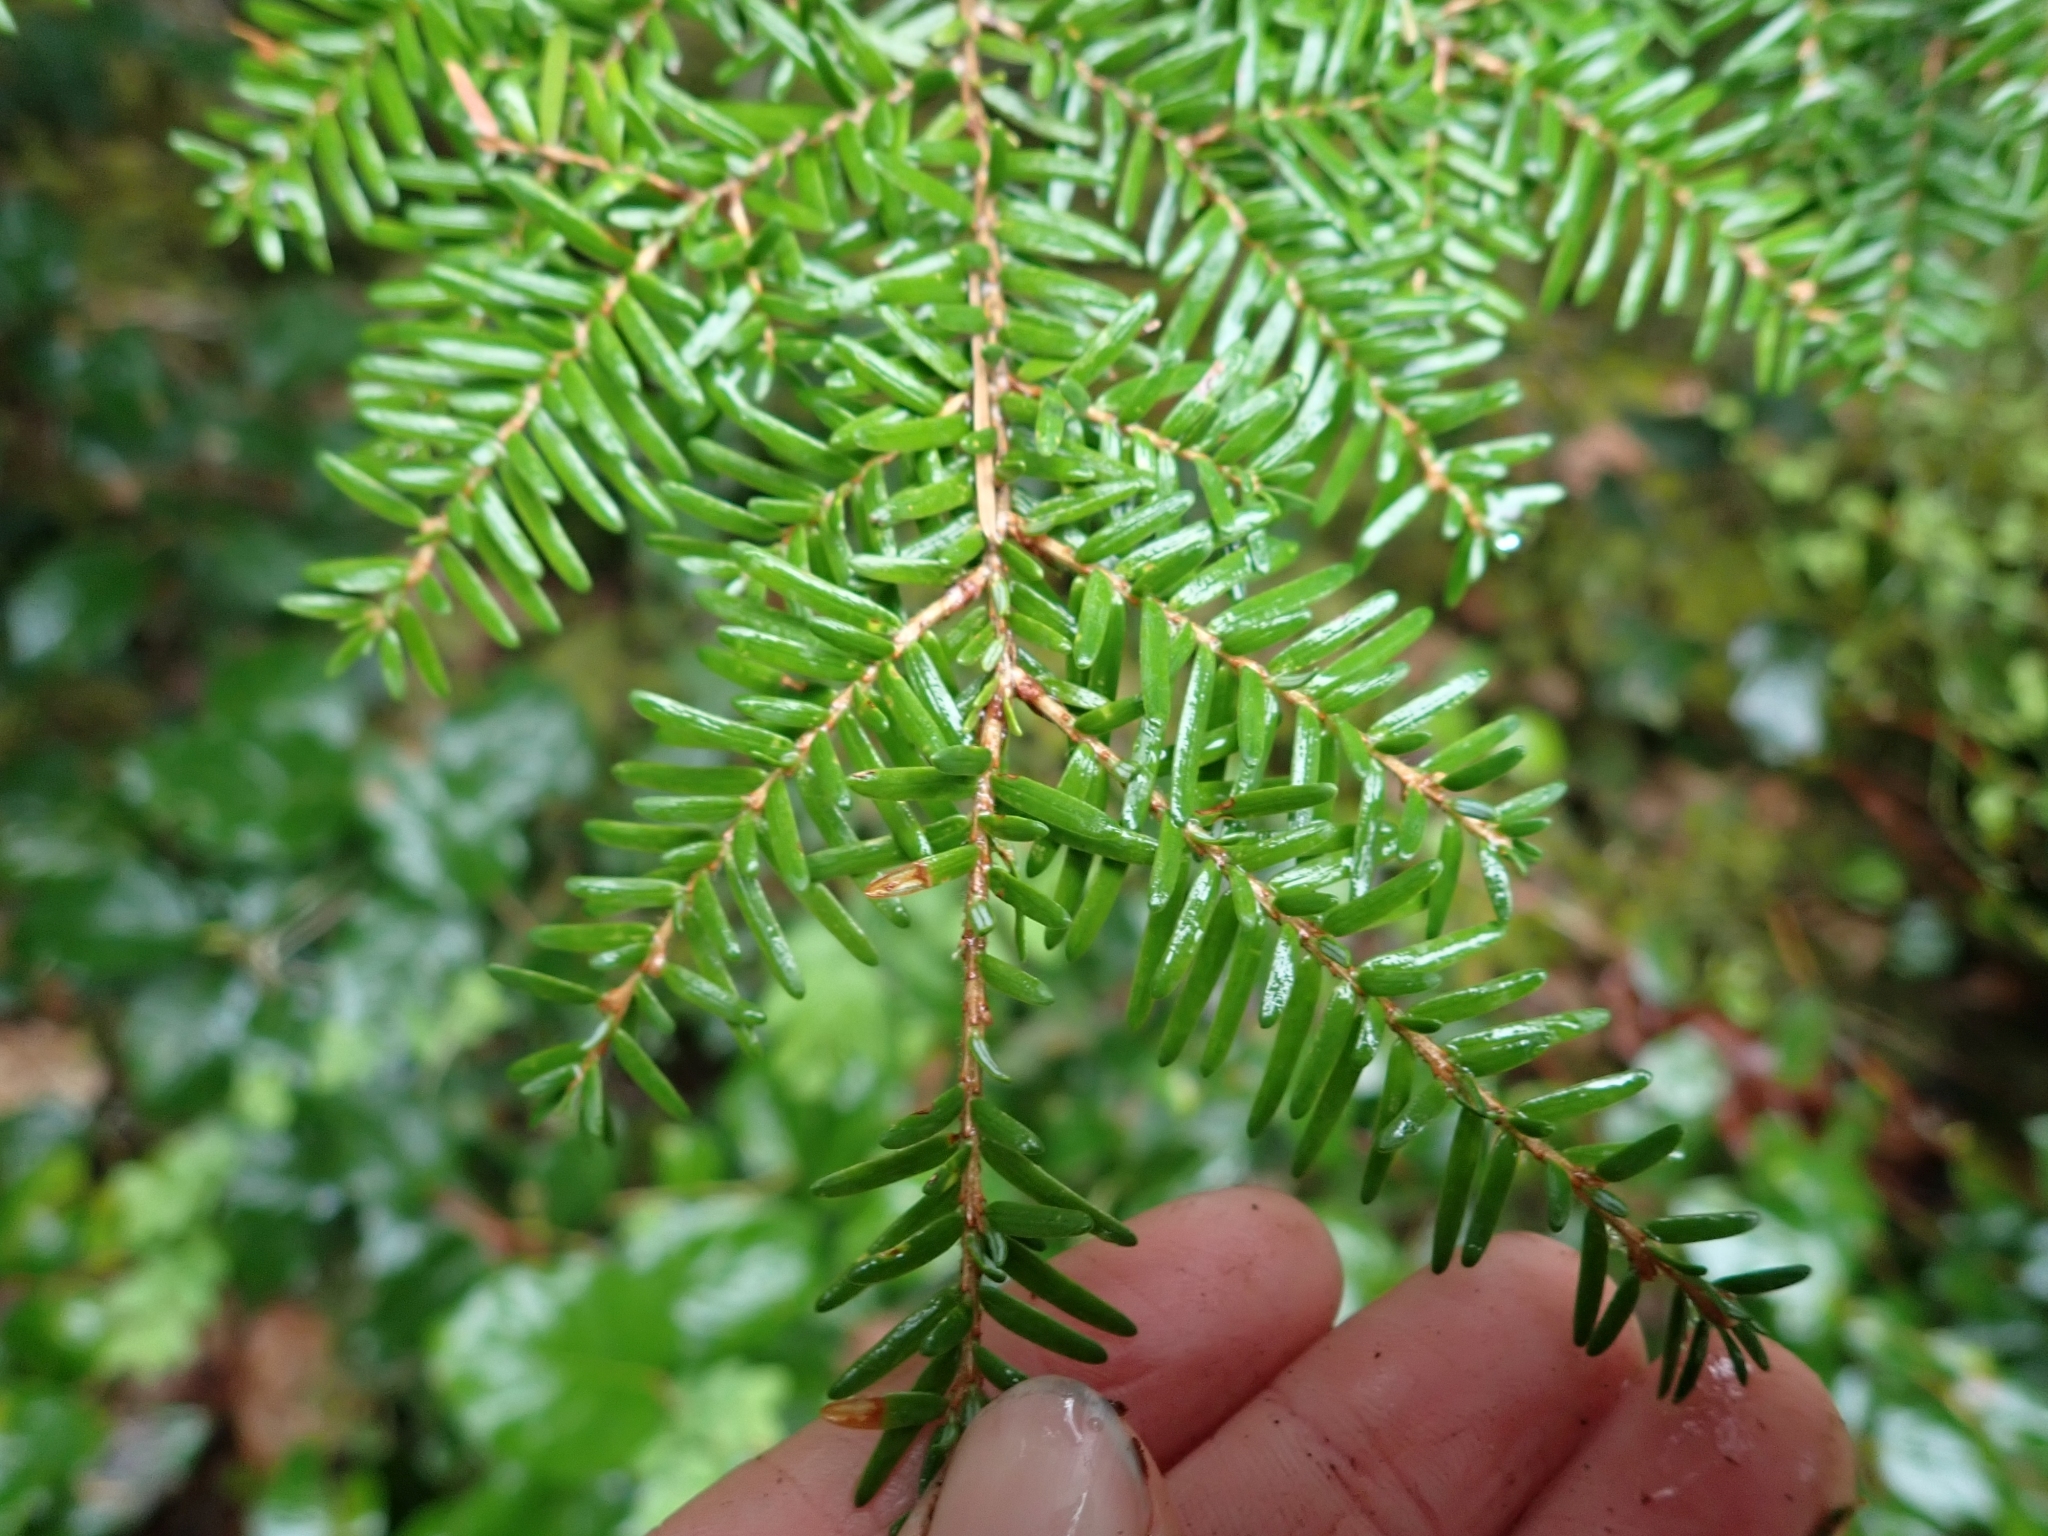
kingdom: Plantae
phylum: Tracheophyta
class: Pinopsida
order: Pinales
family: Pinaceae
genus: Tsuga
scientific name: Tsuga heterophylla
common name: Western hemlock
